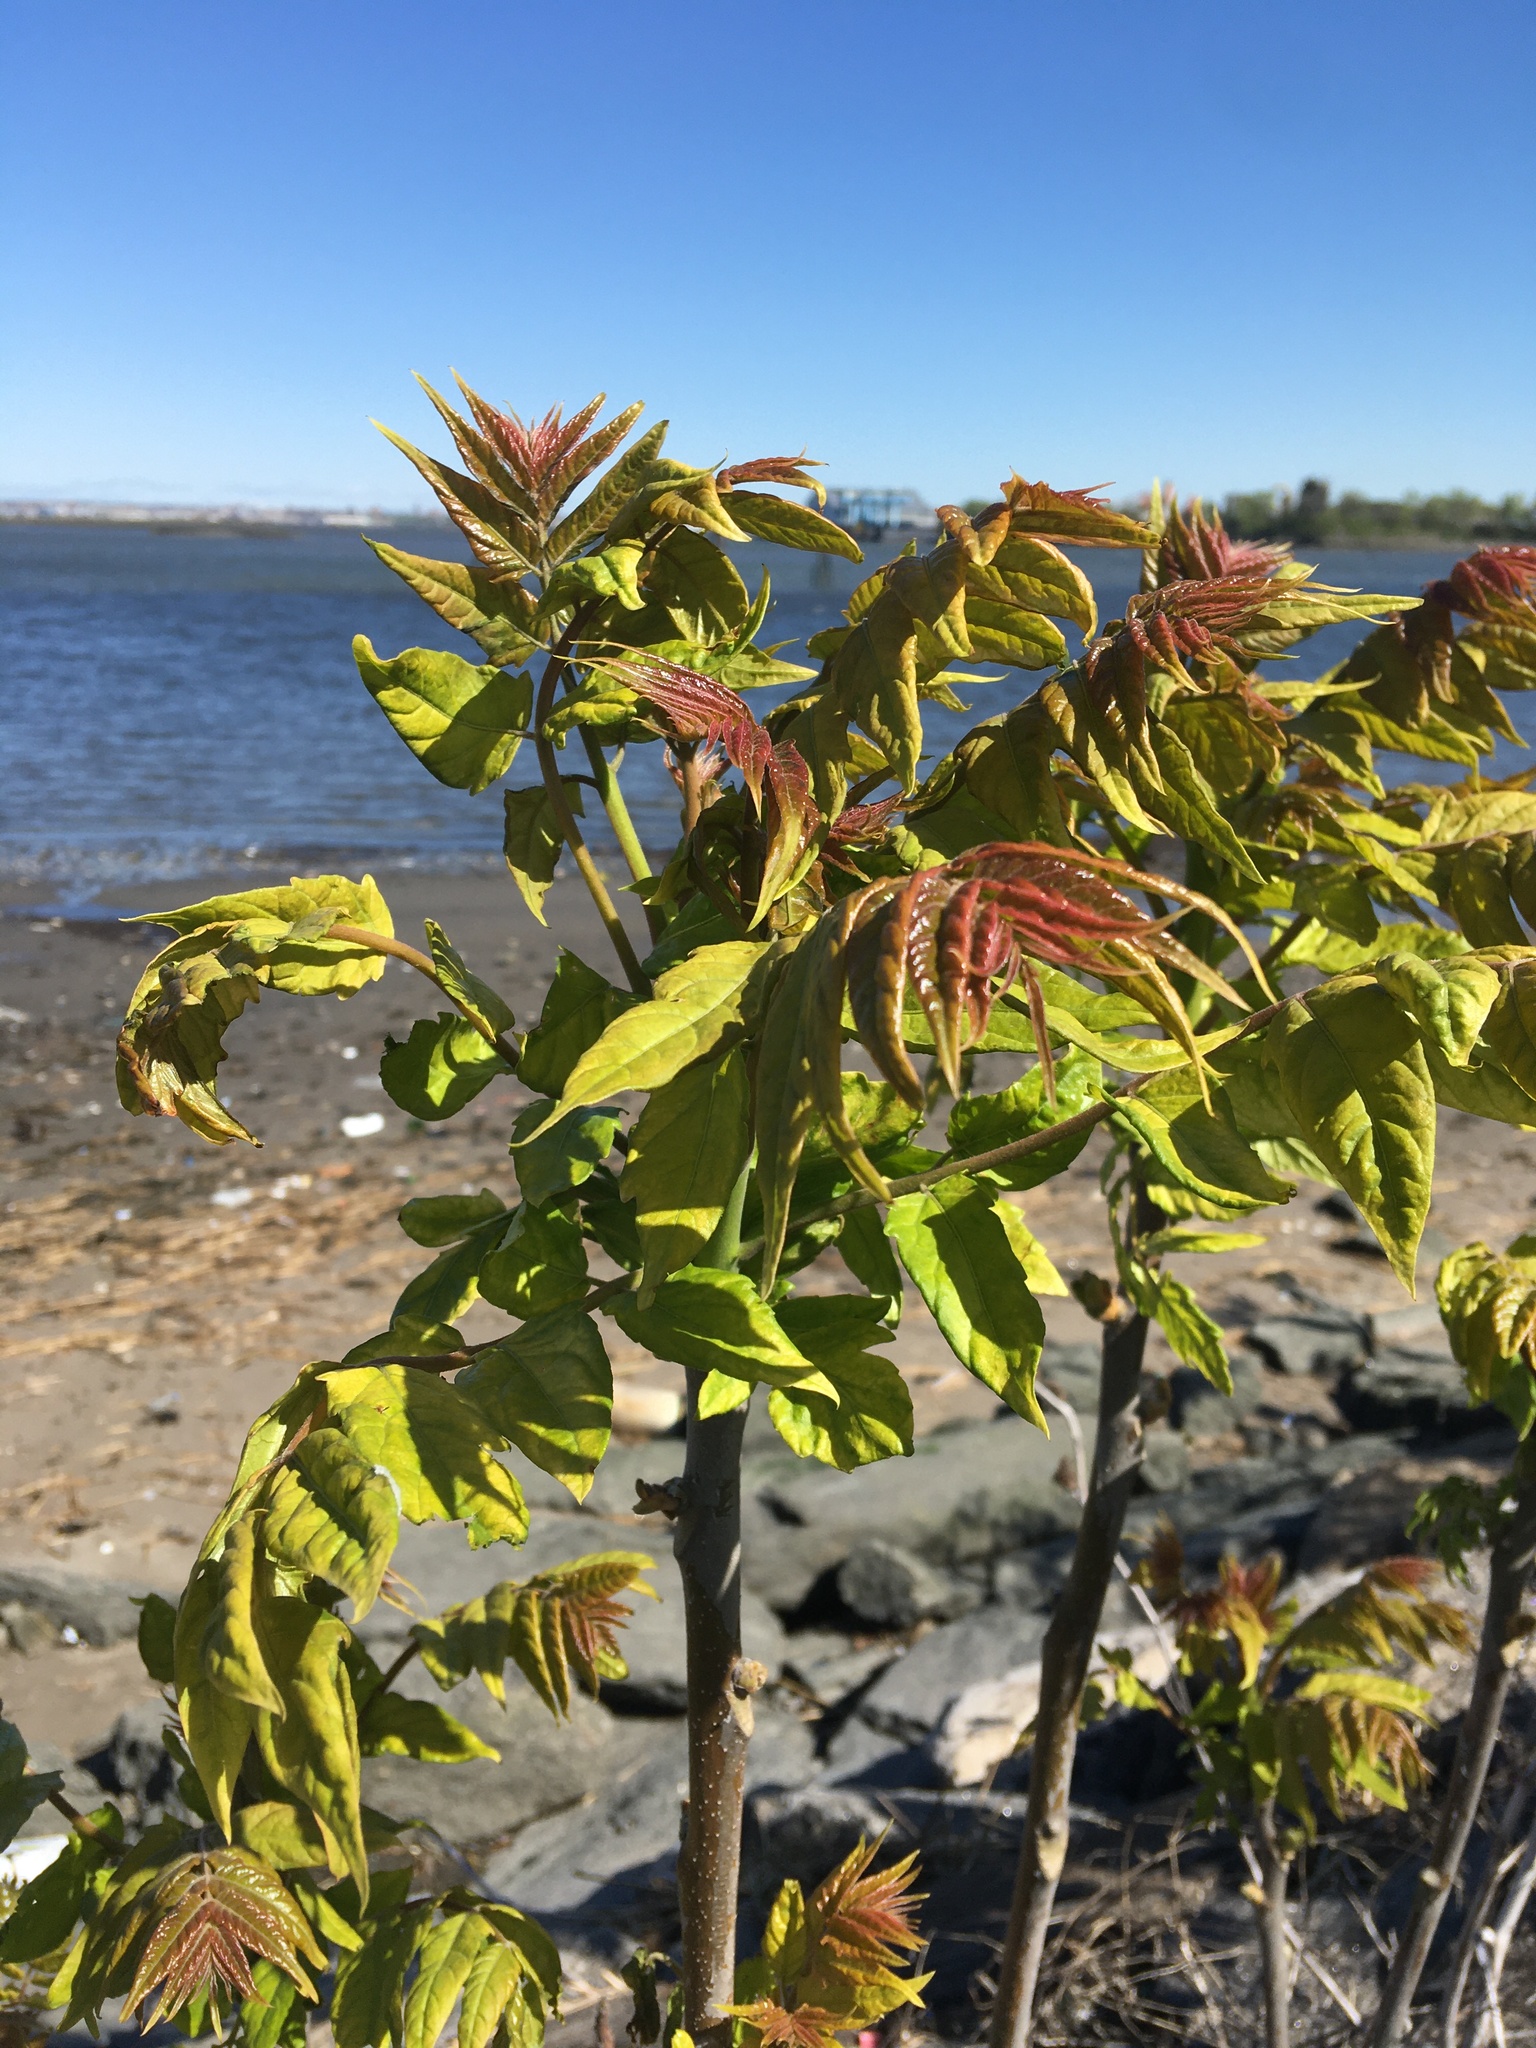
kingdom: Plantae
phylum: Tracheophyta
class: Magnoliopsida
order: Sapindales
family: Simaroubaceae
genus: Ailanthus
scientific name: Ailanthus altissima
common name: Tree-of-heaven
